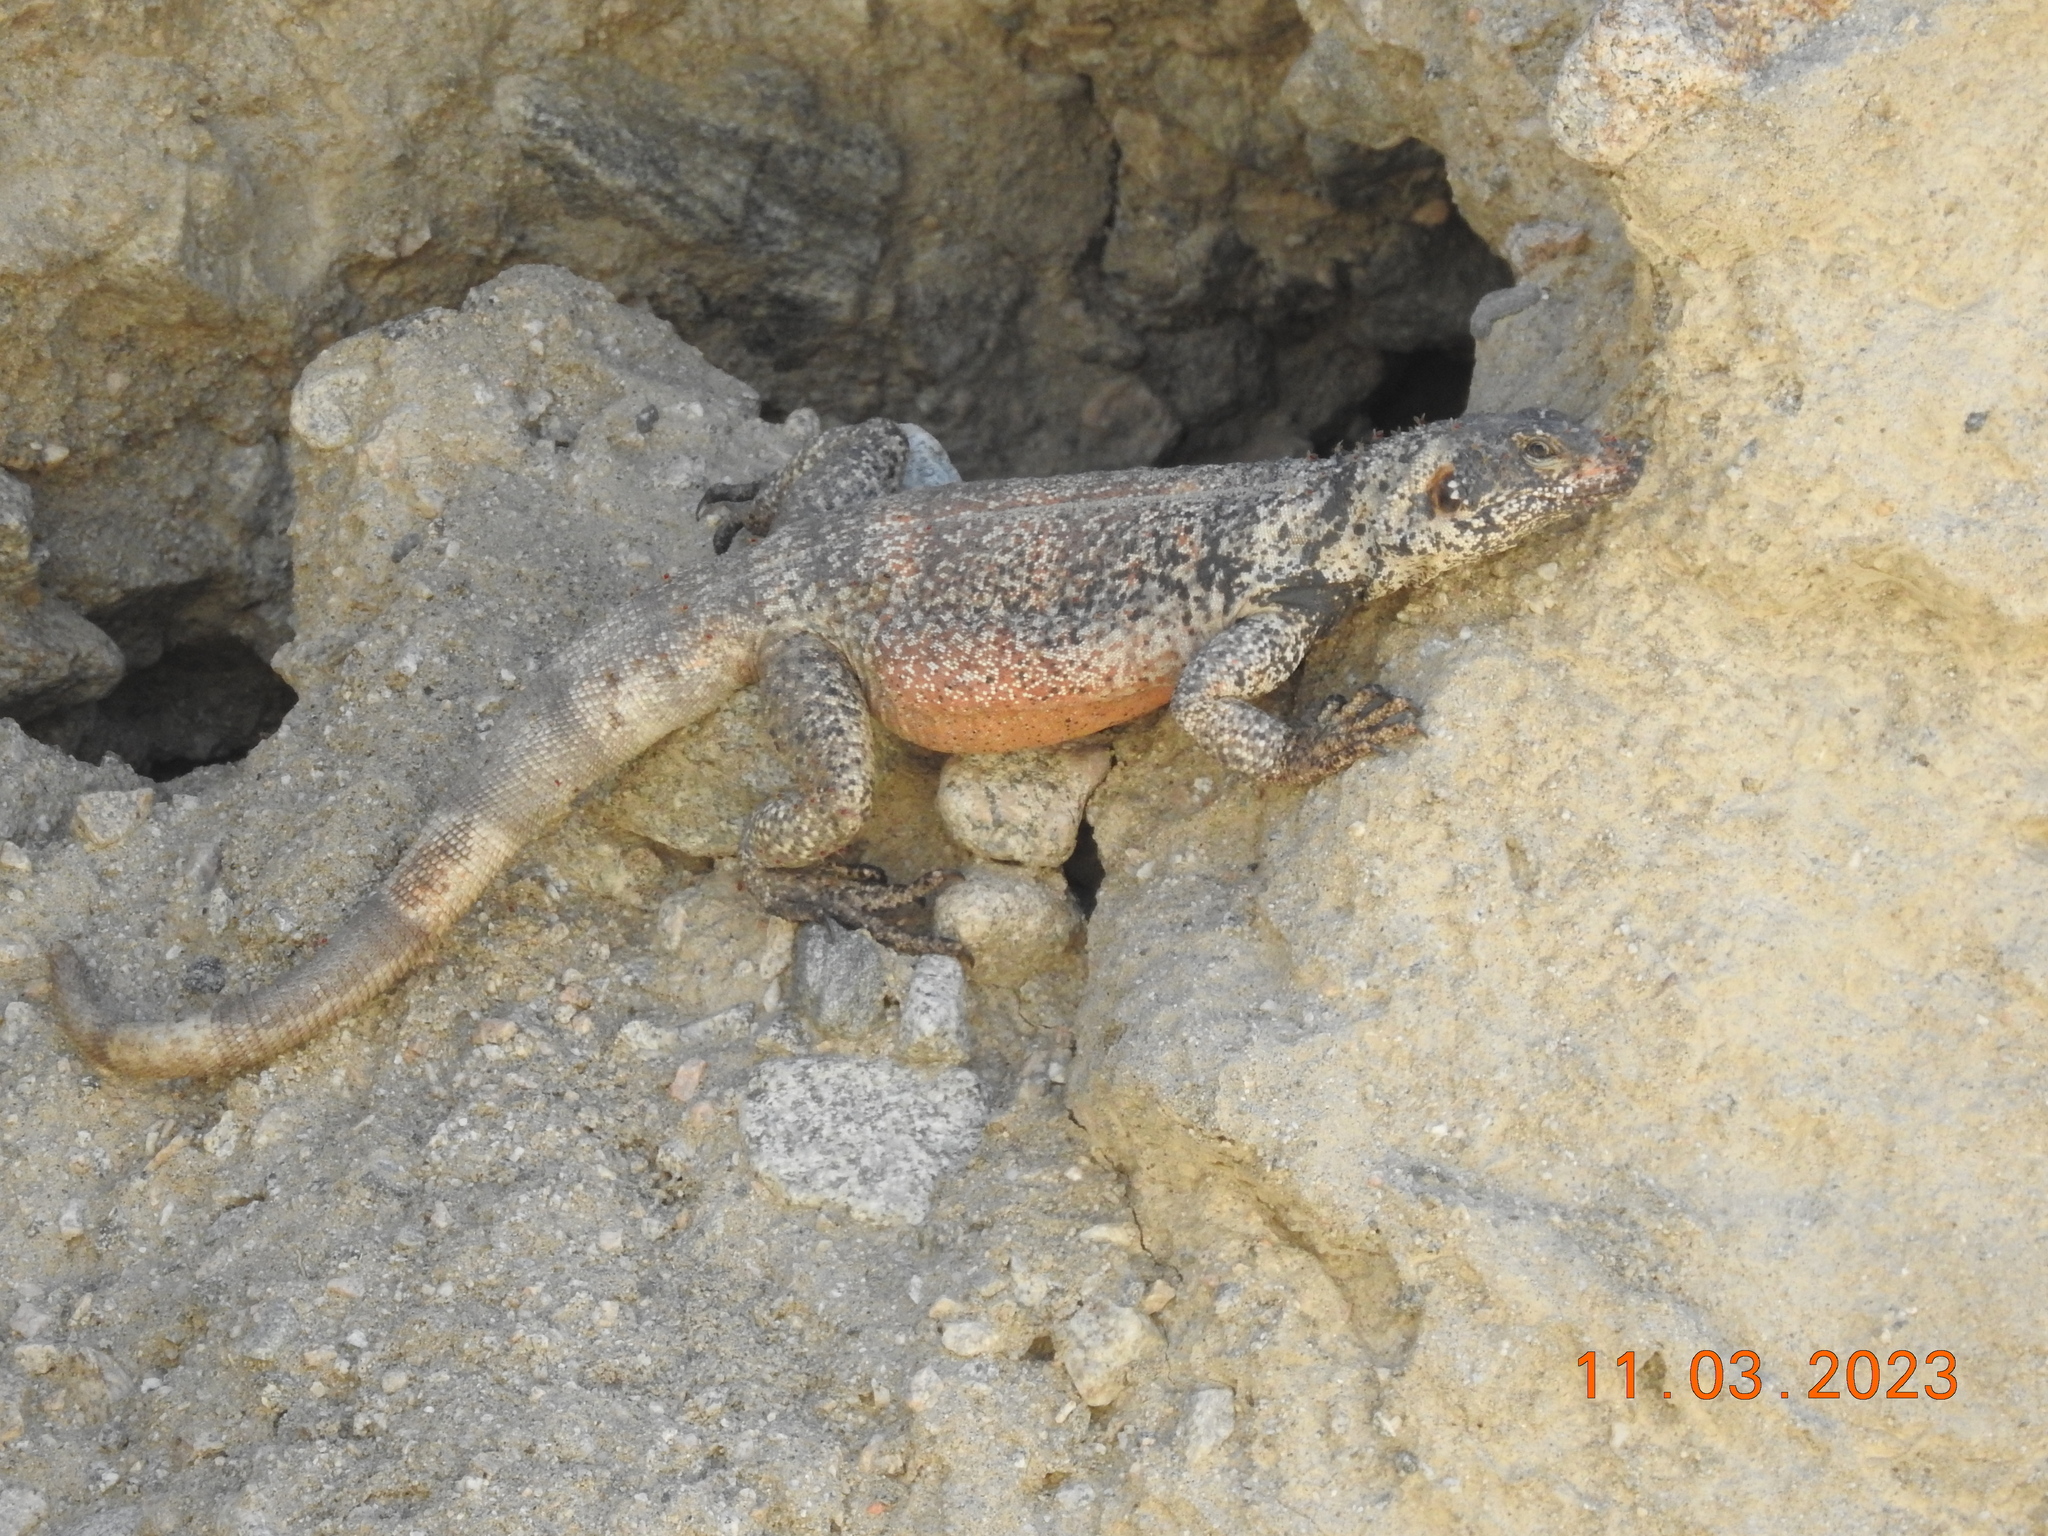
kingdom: Animalia
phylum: Chordata
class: Squamata
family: Iguanidae
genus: Sauromalus
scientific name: Sauromalus ater
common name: Northern chuckwalla
